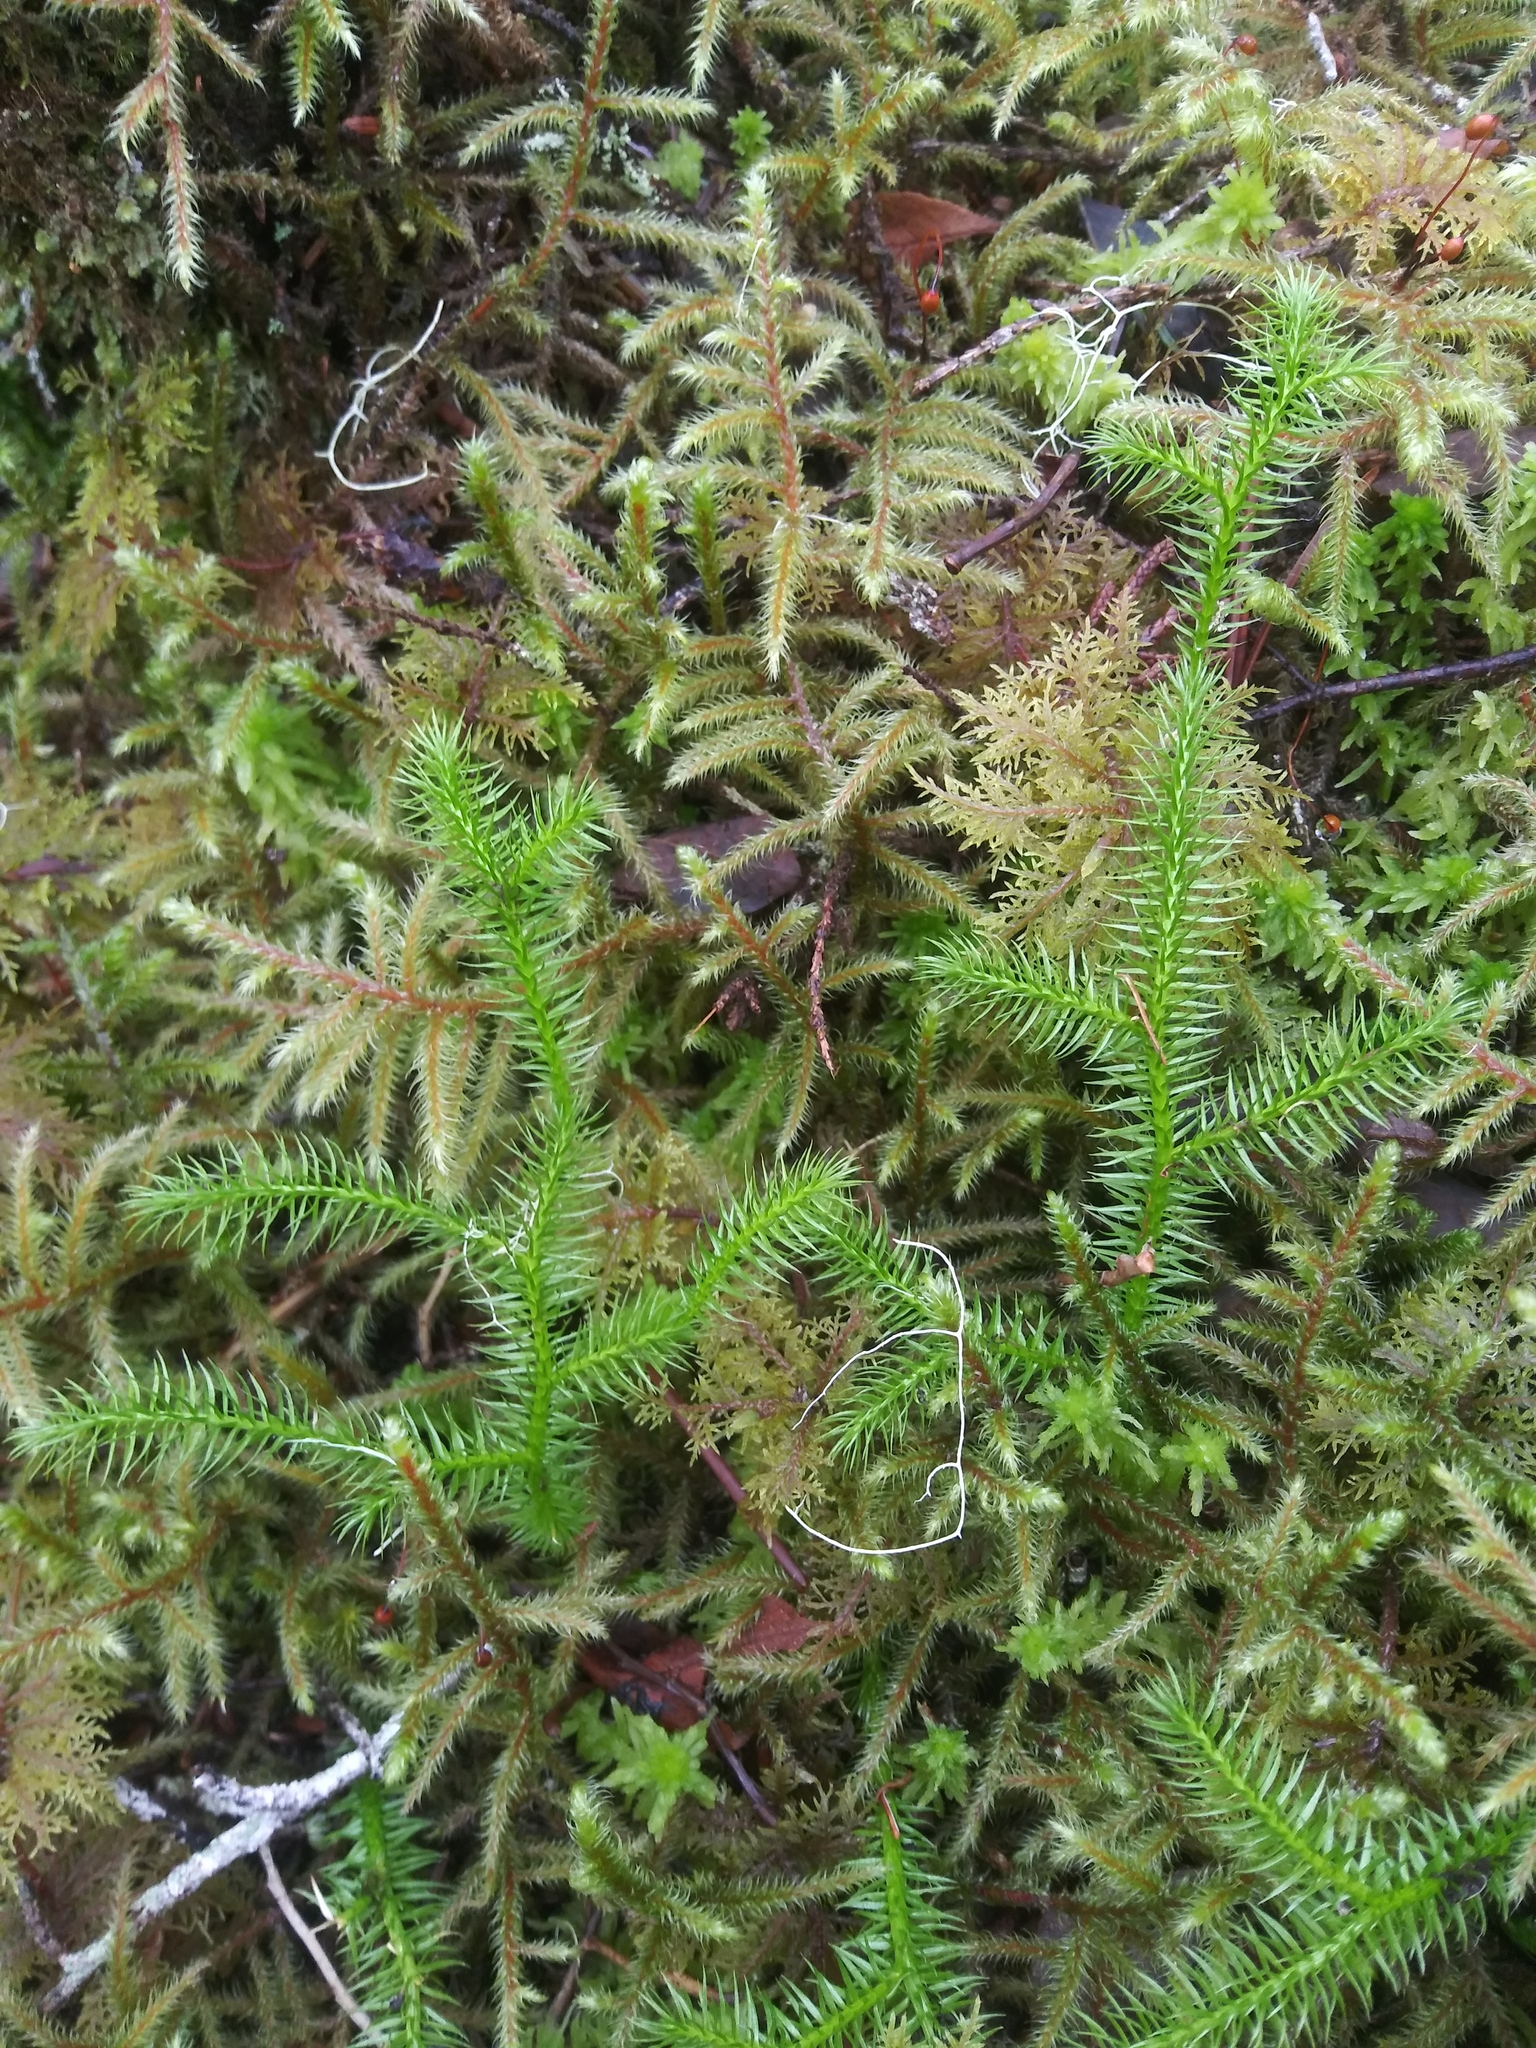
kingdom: Plantae
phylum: Tracheophyta
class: Lycopodiopsida
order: Lycopodiales
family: Lycopodiaceae
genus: Lycopodium
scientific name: Lycopodium clavatum
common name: Stag's-horn clubmoss
